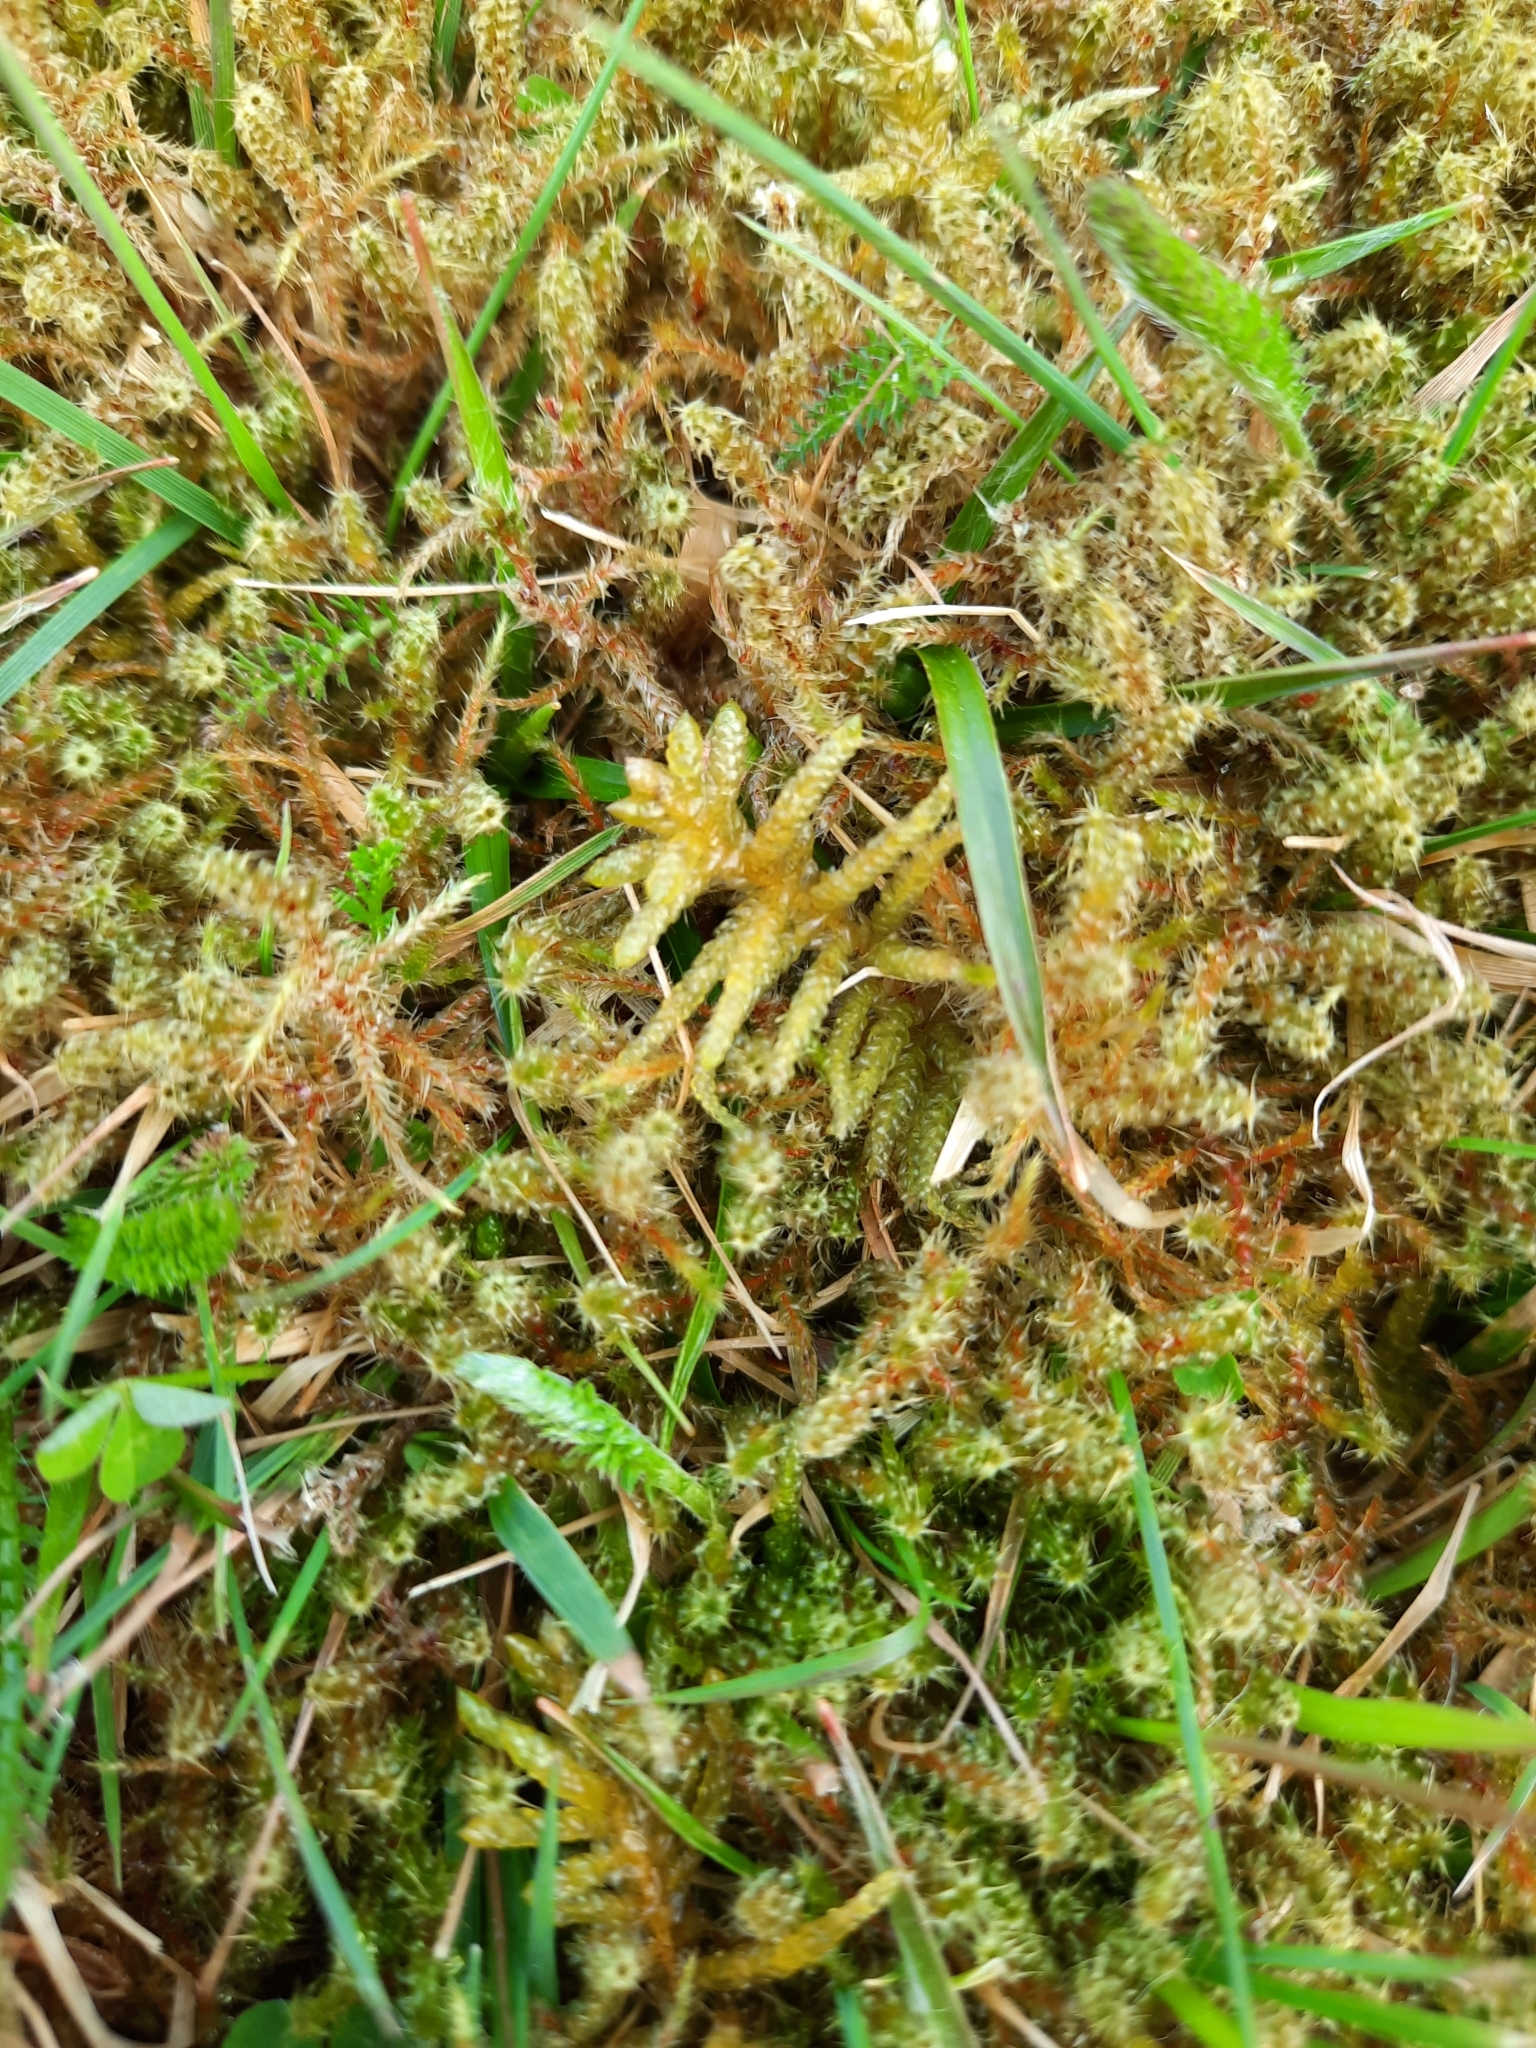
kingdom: Plantae
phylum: Bryophyta
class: Bryopsida
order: Hypnales
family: Brachytheciaceae
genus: Pseudoscleropodium
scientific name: Pseudoscleropodium purum
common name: Neat feather-moss
